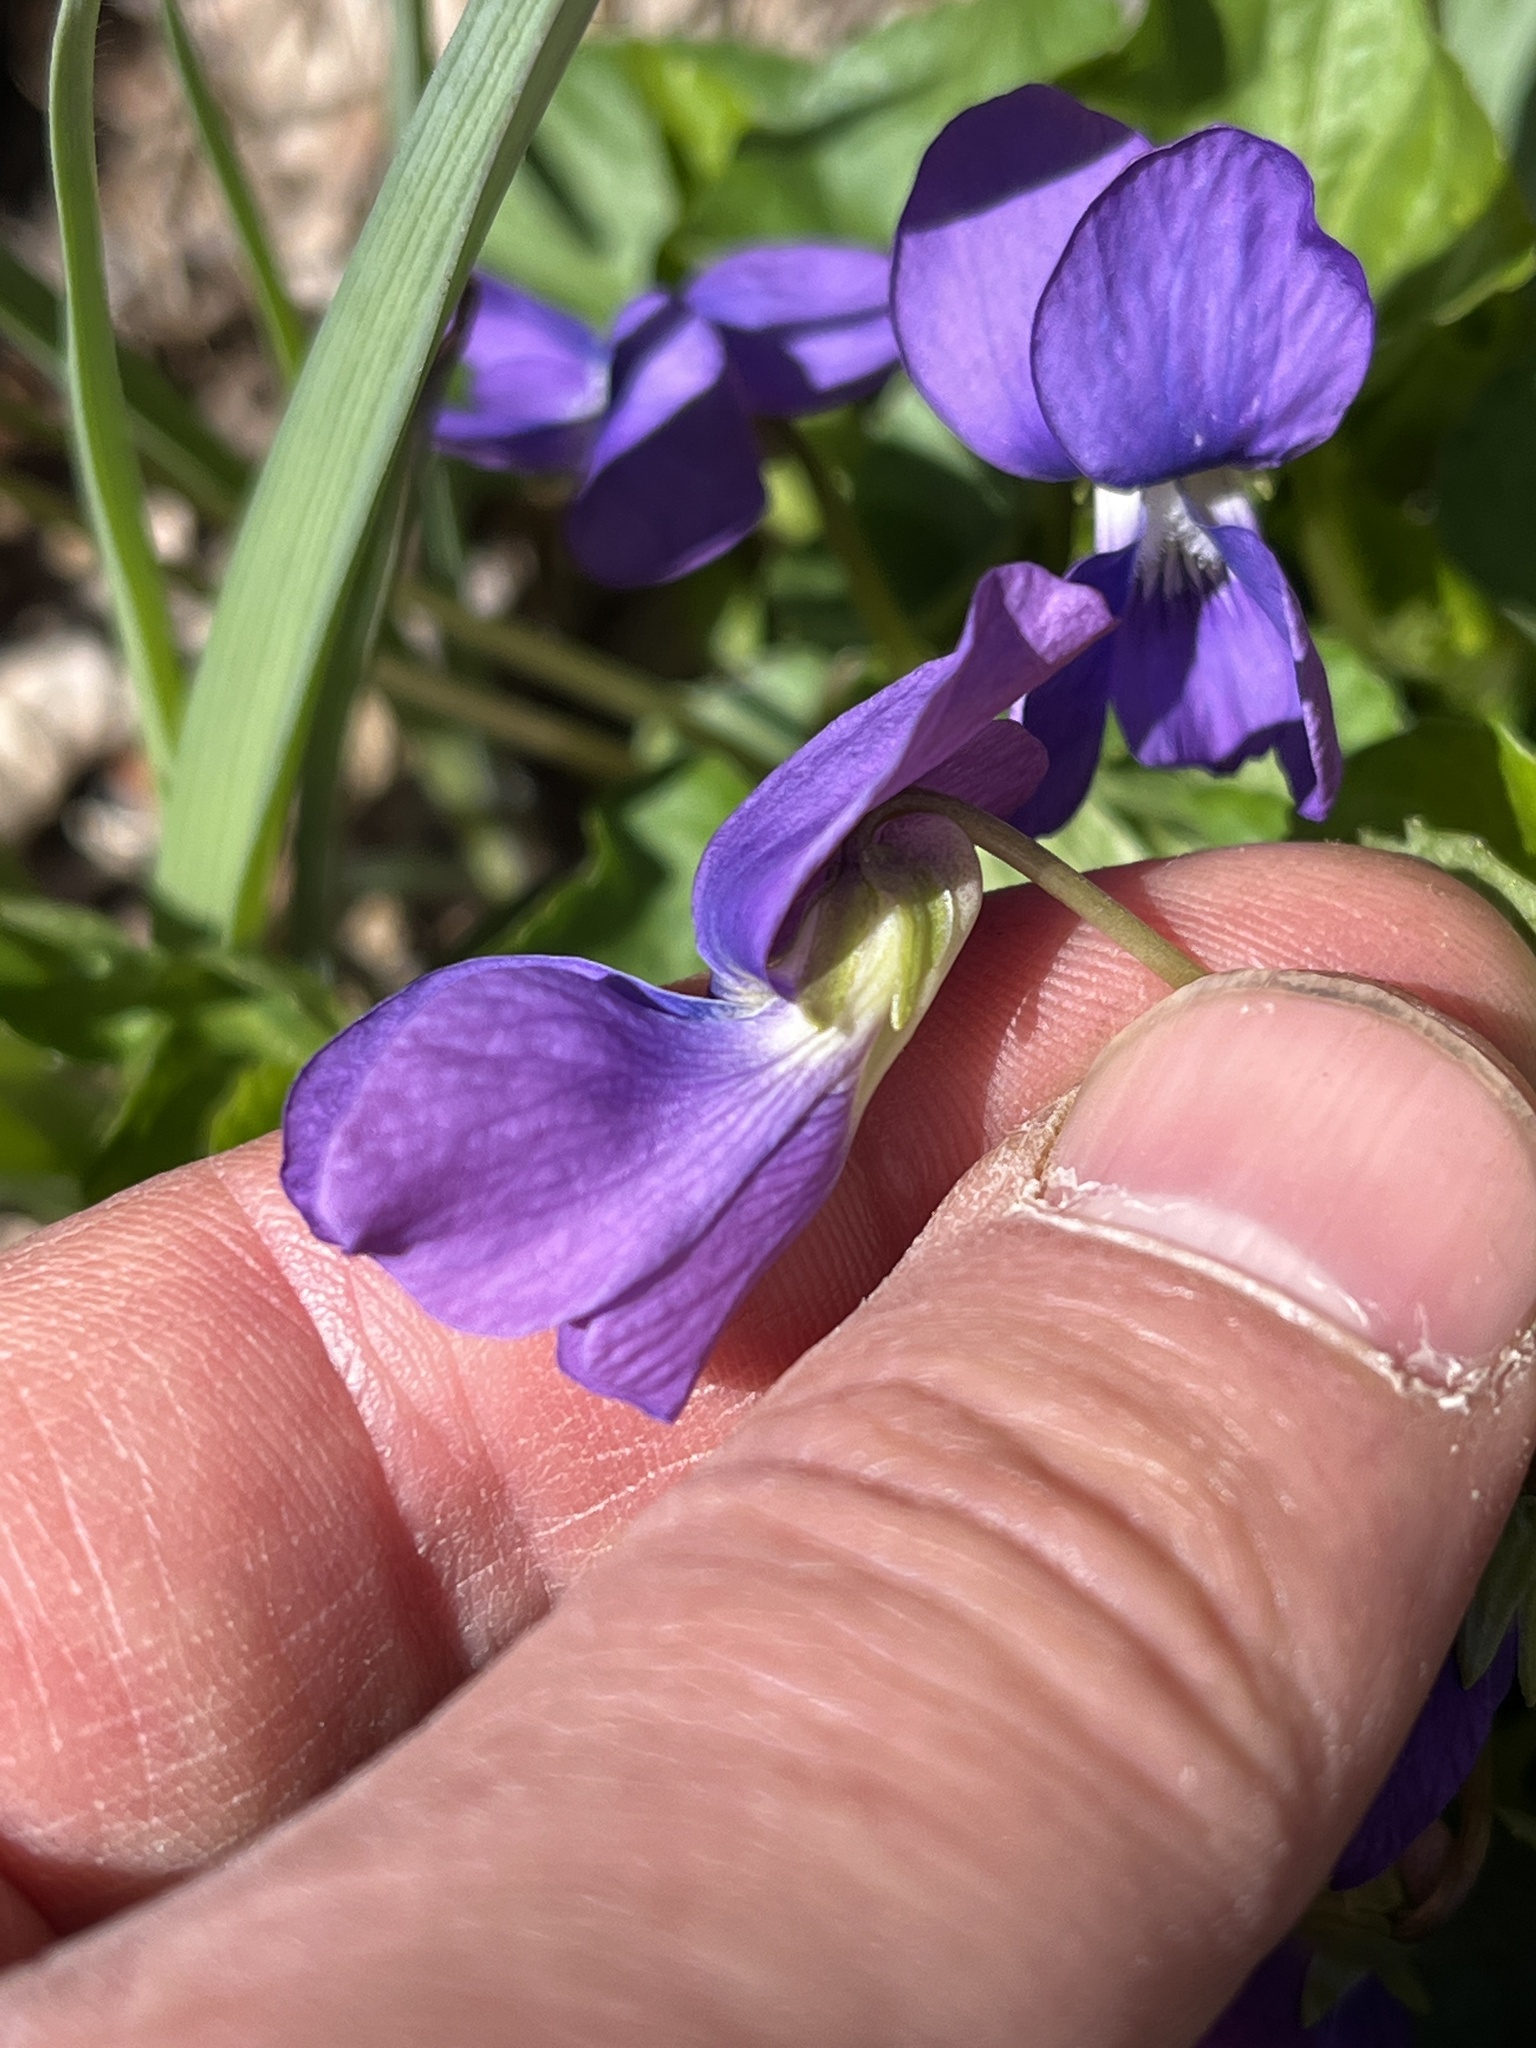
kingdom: Plantae
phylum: Tracheophyta
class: Magnoliopsida
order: Malpighiales
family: Violaceae
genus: Viola
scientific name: Viola sororia
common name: Dooryard violet
